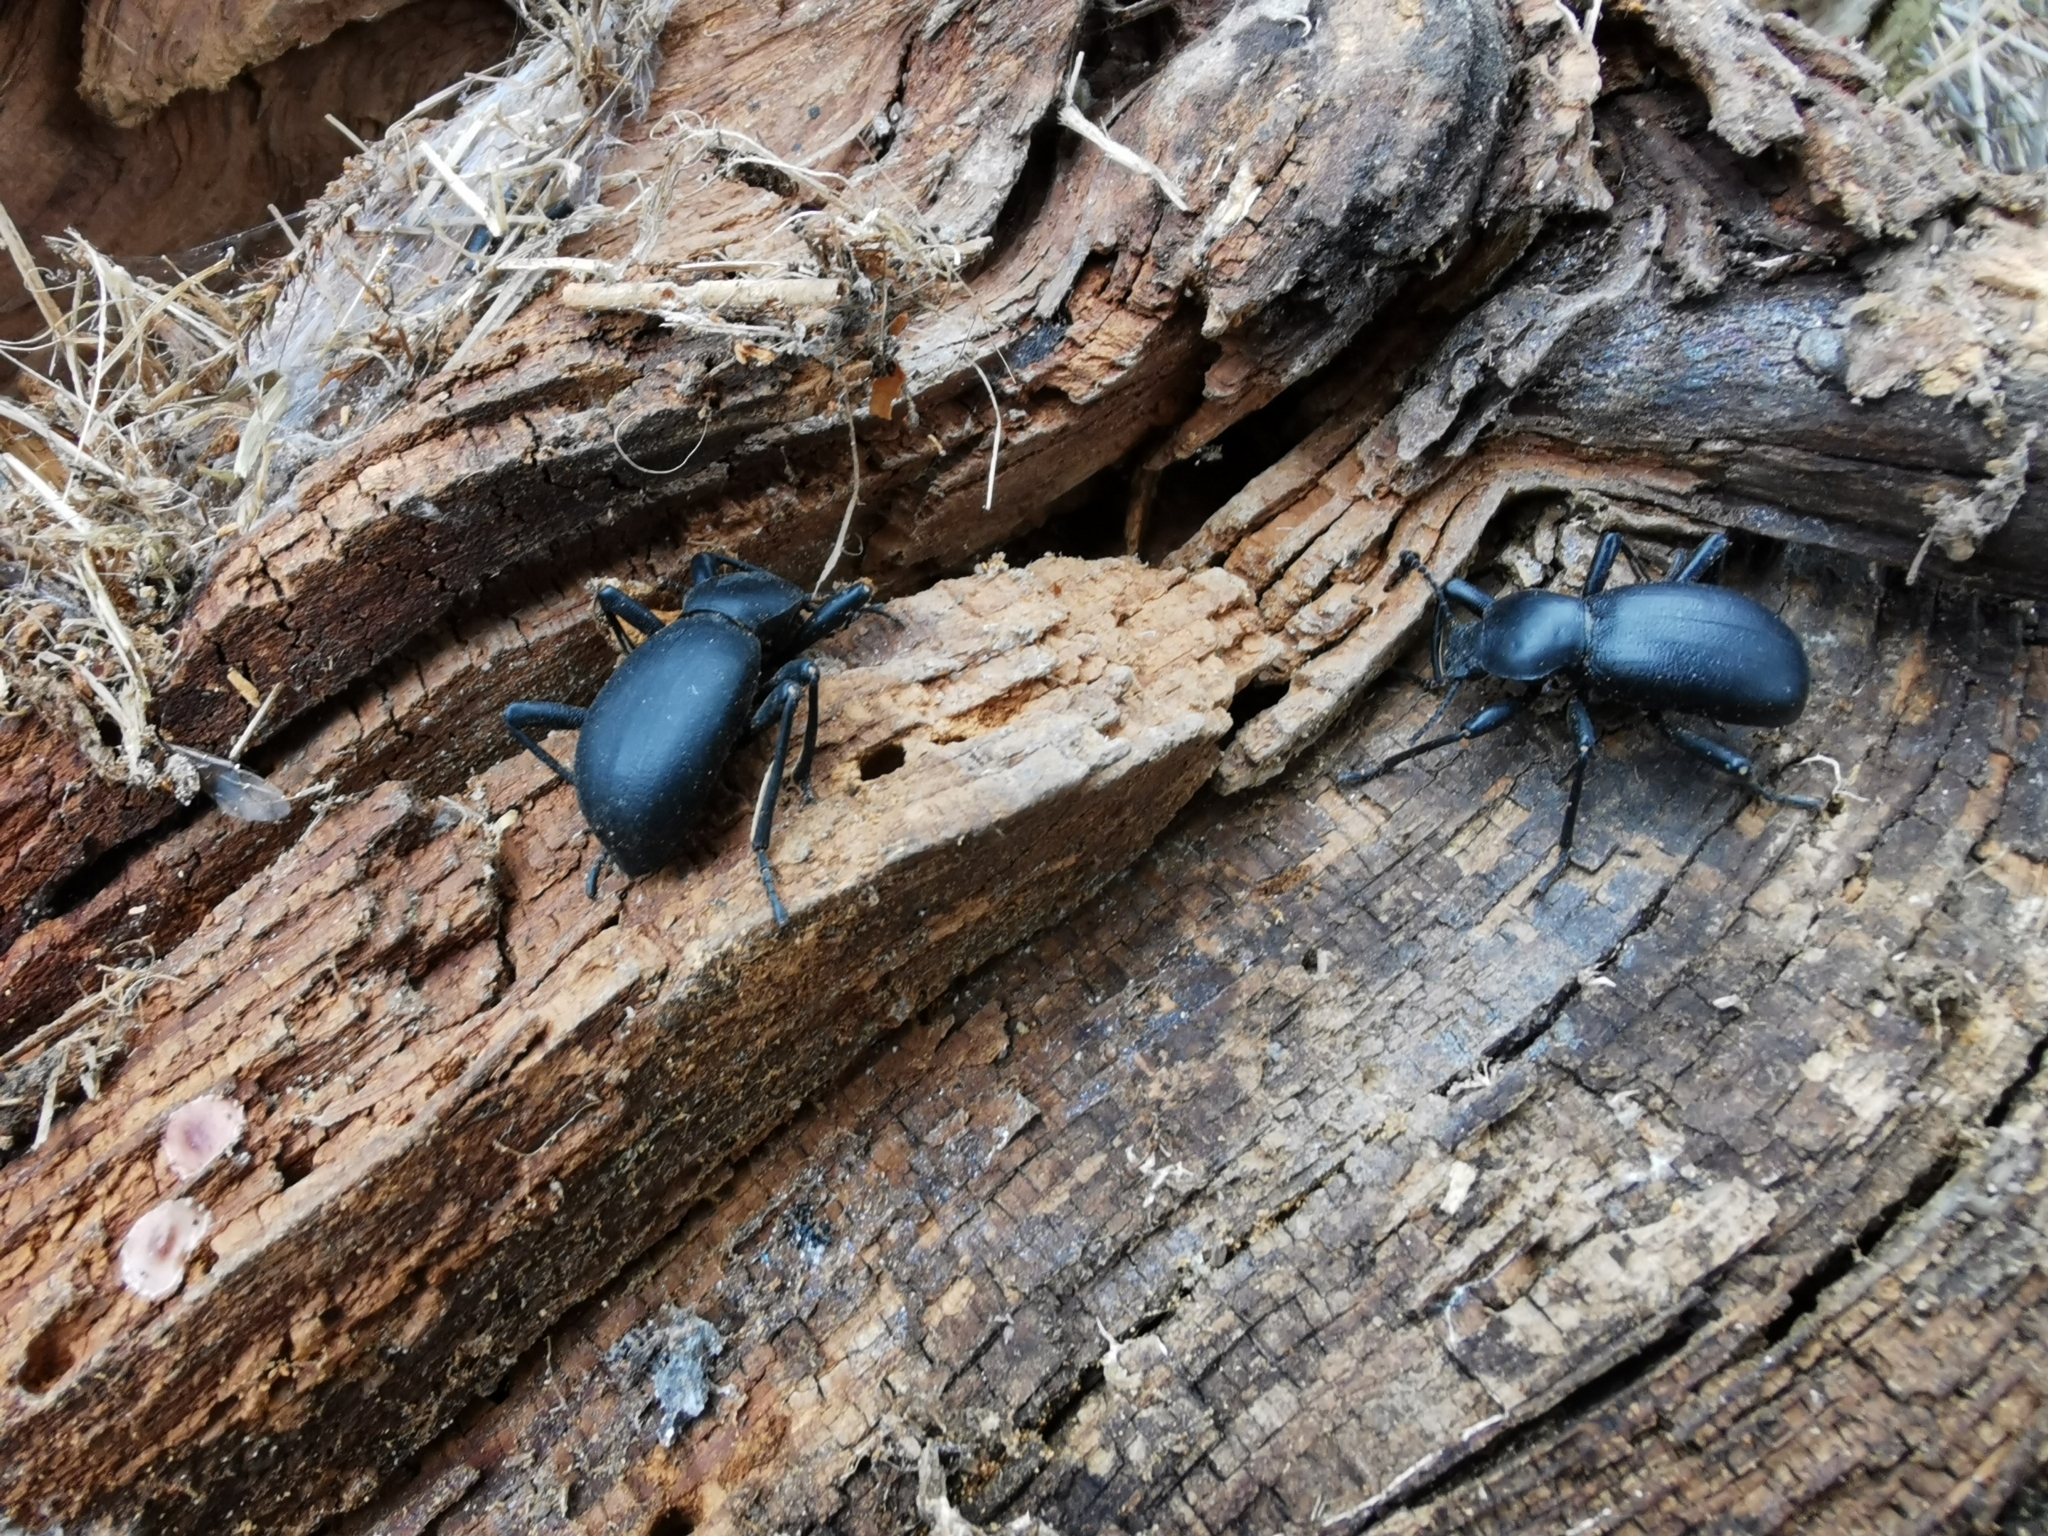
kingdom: Animalia
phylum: Arthropoda
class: Insecta
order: Coleoptera
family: Tenebrionidae
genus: Coelocnemis
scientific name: Coelocnemis dilaticollis
